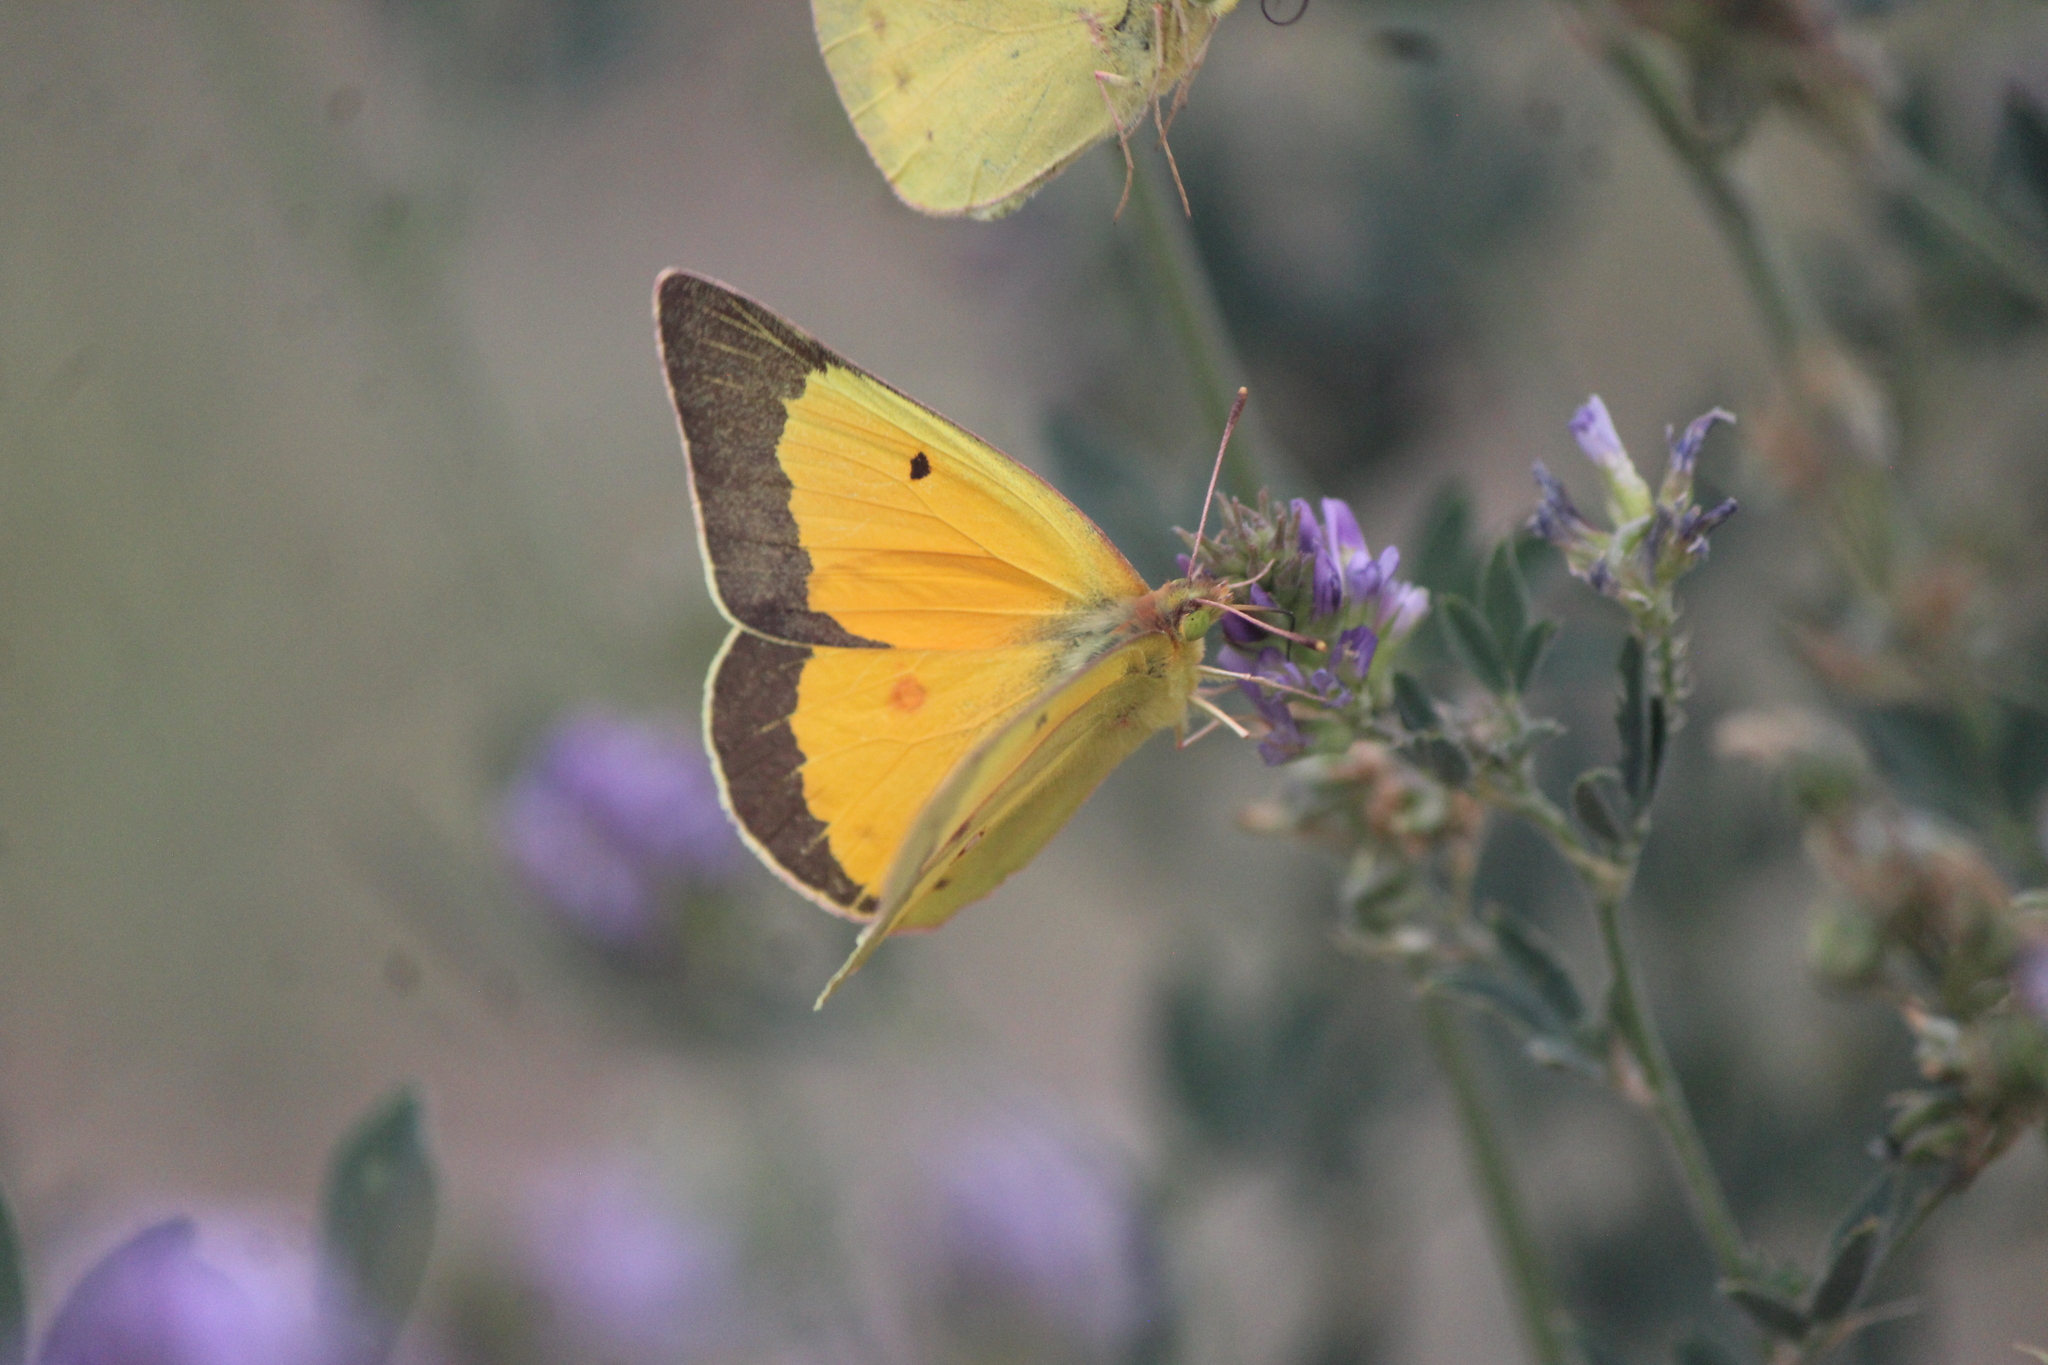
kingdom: Animalia
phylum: Arthropoda
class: Insecta
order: Lepidoptera
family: Pieridae
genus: Colias
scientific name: Colias eurytheme
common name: Alfalfa butterfly
